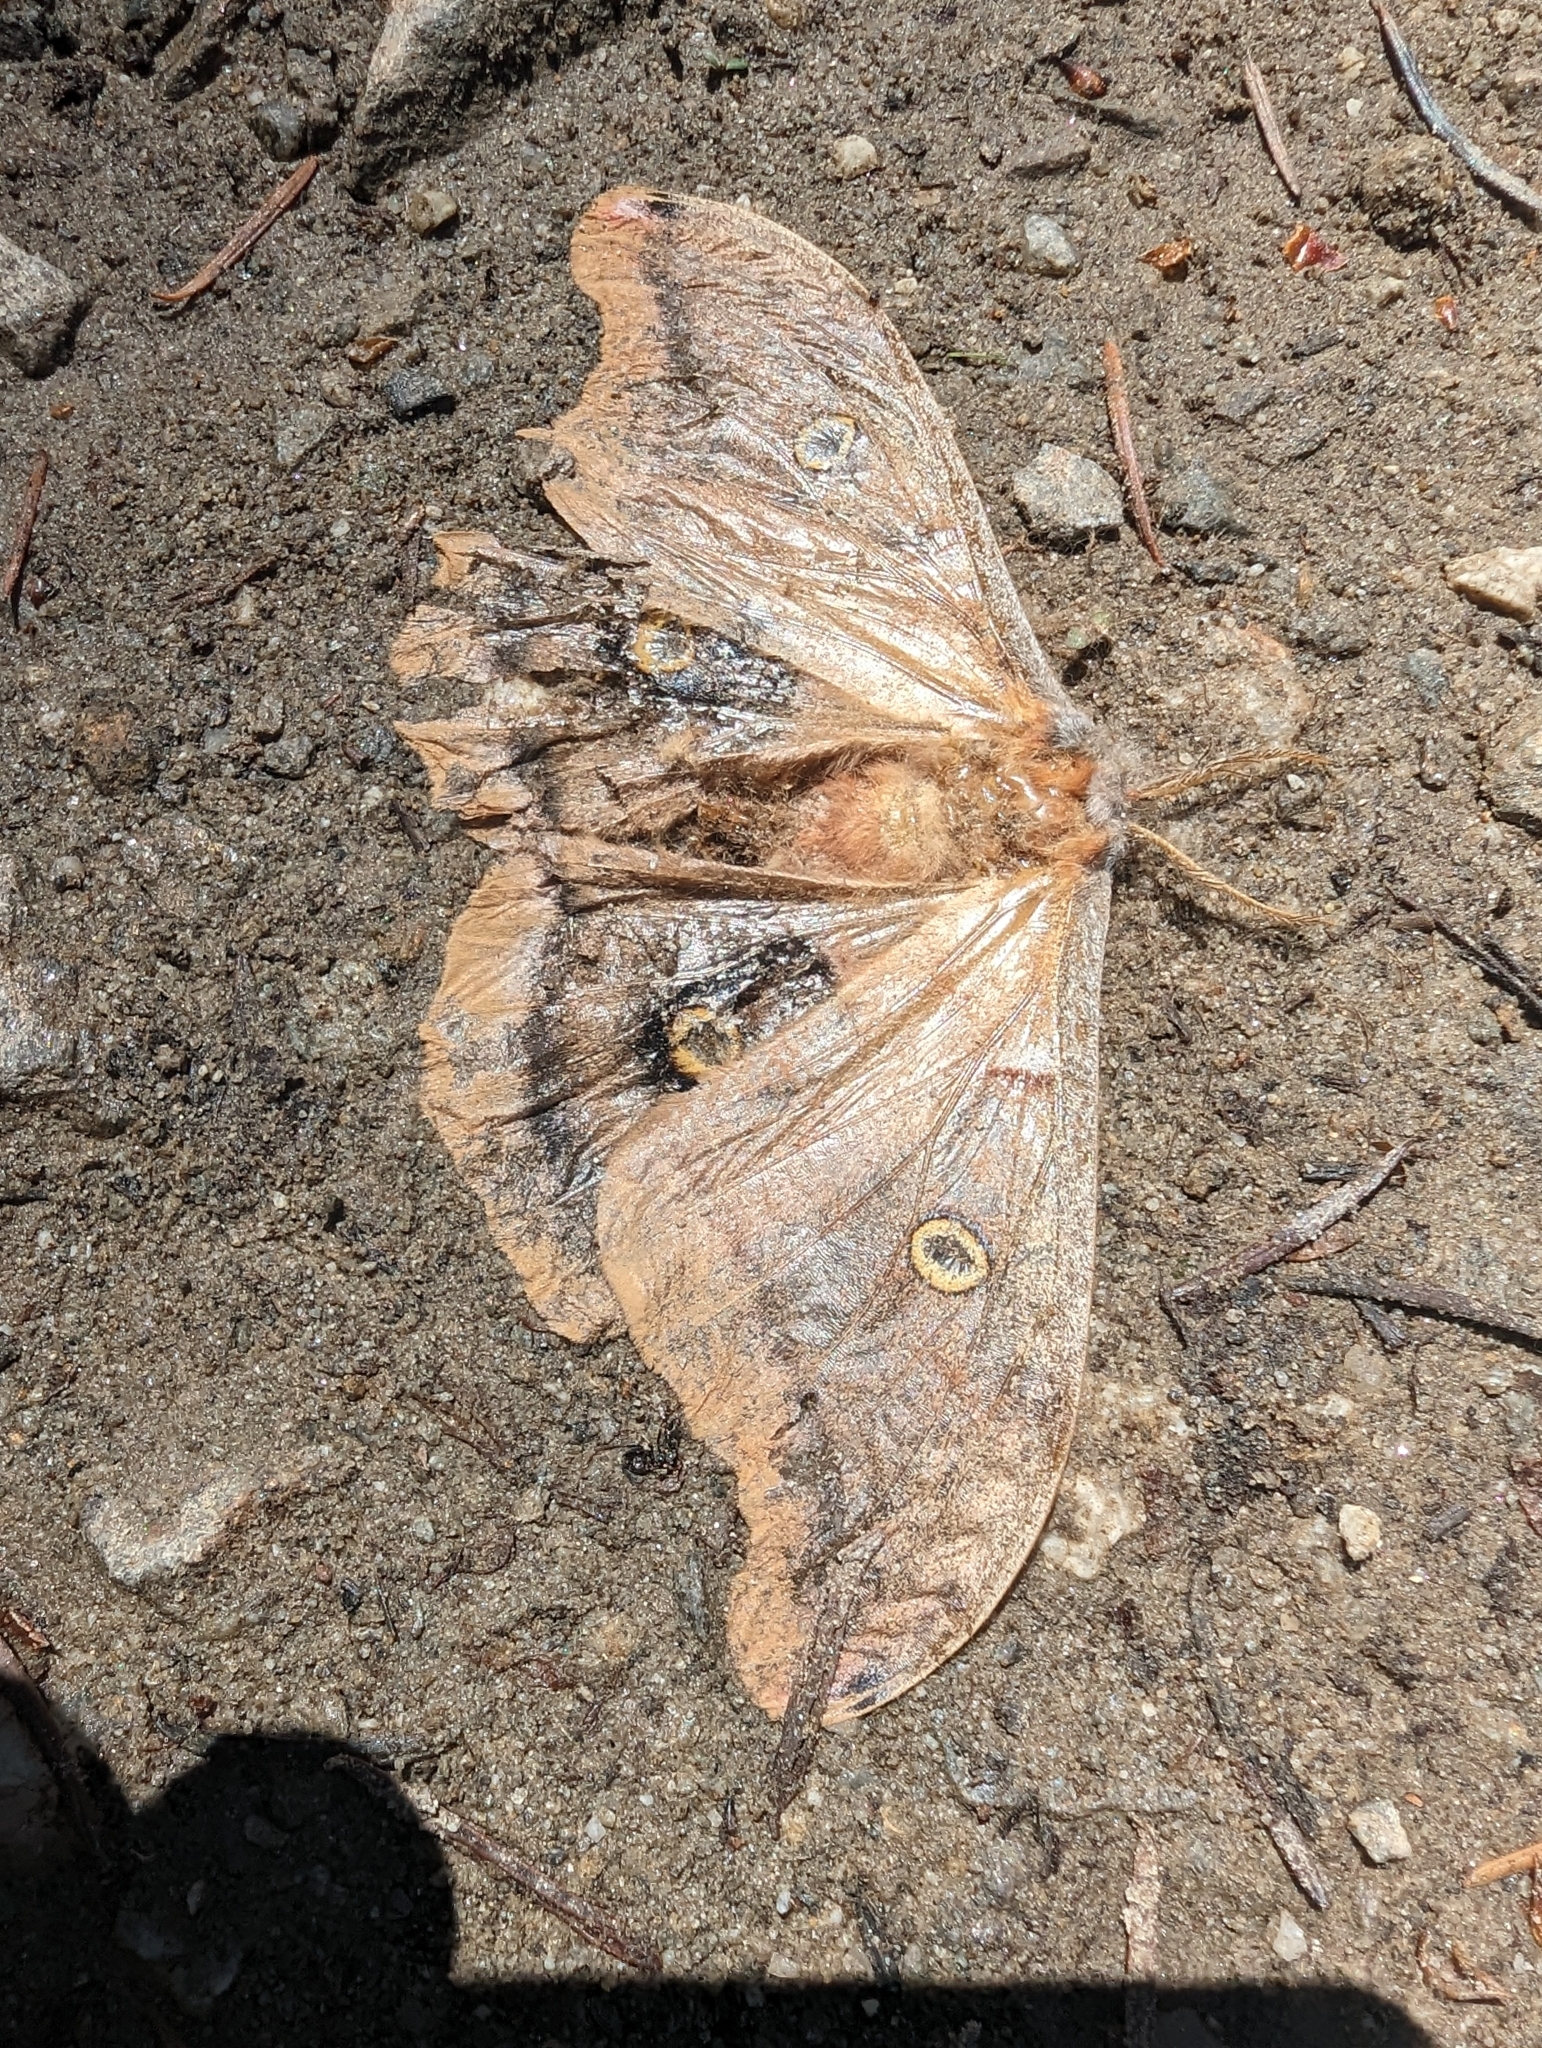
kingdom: Animalia
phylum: Arthropoda
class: Insecta
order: Lepidoptera
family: Saturniidae
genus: Antheraea
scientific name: Antheraea polyphemus
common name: Polyphemus moth
